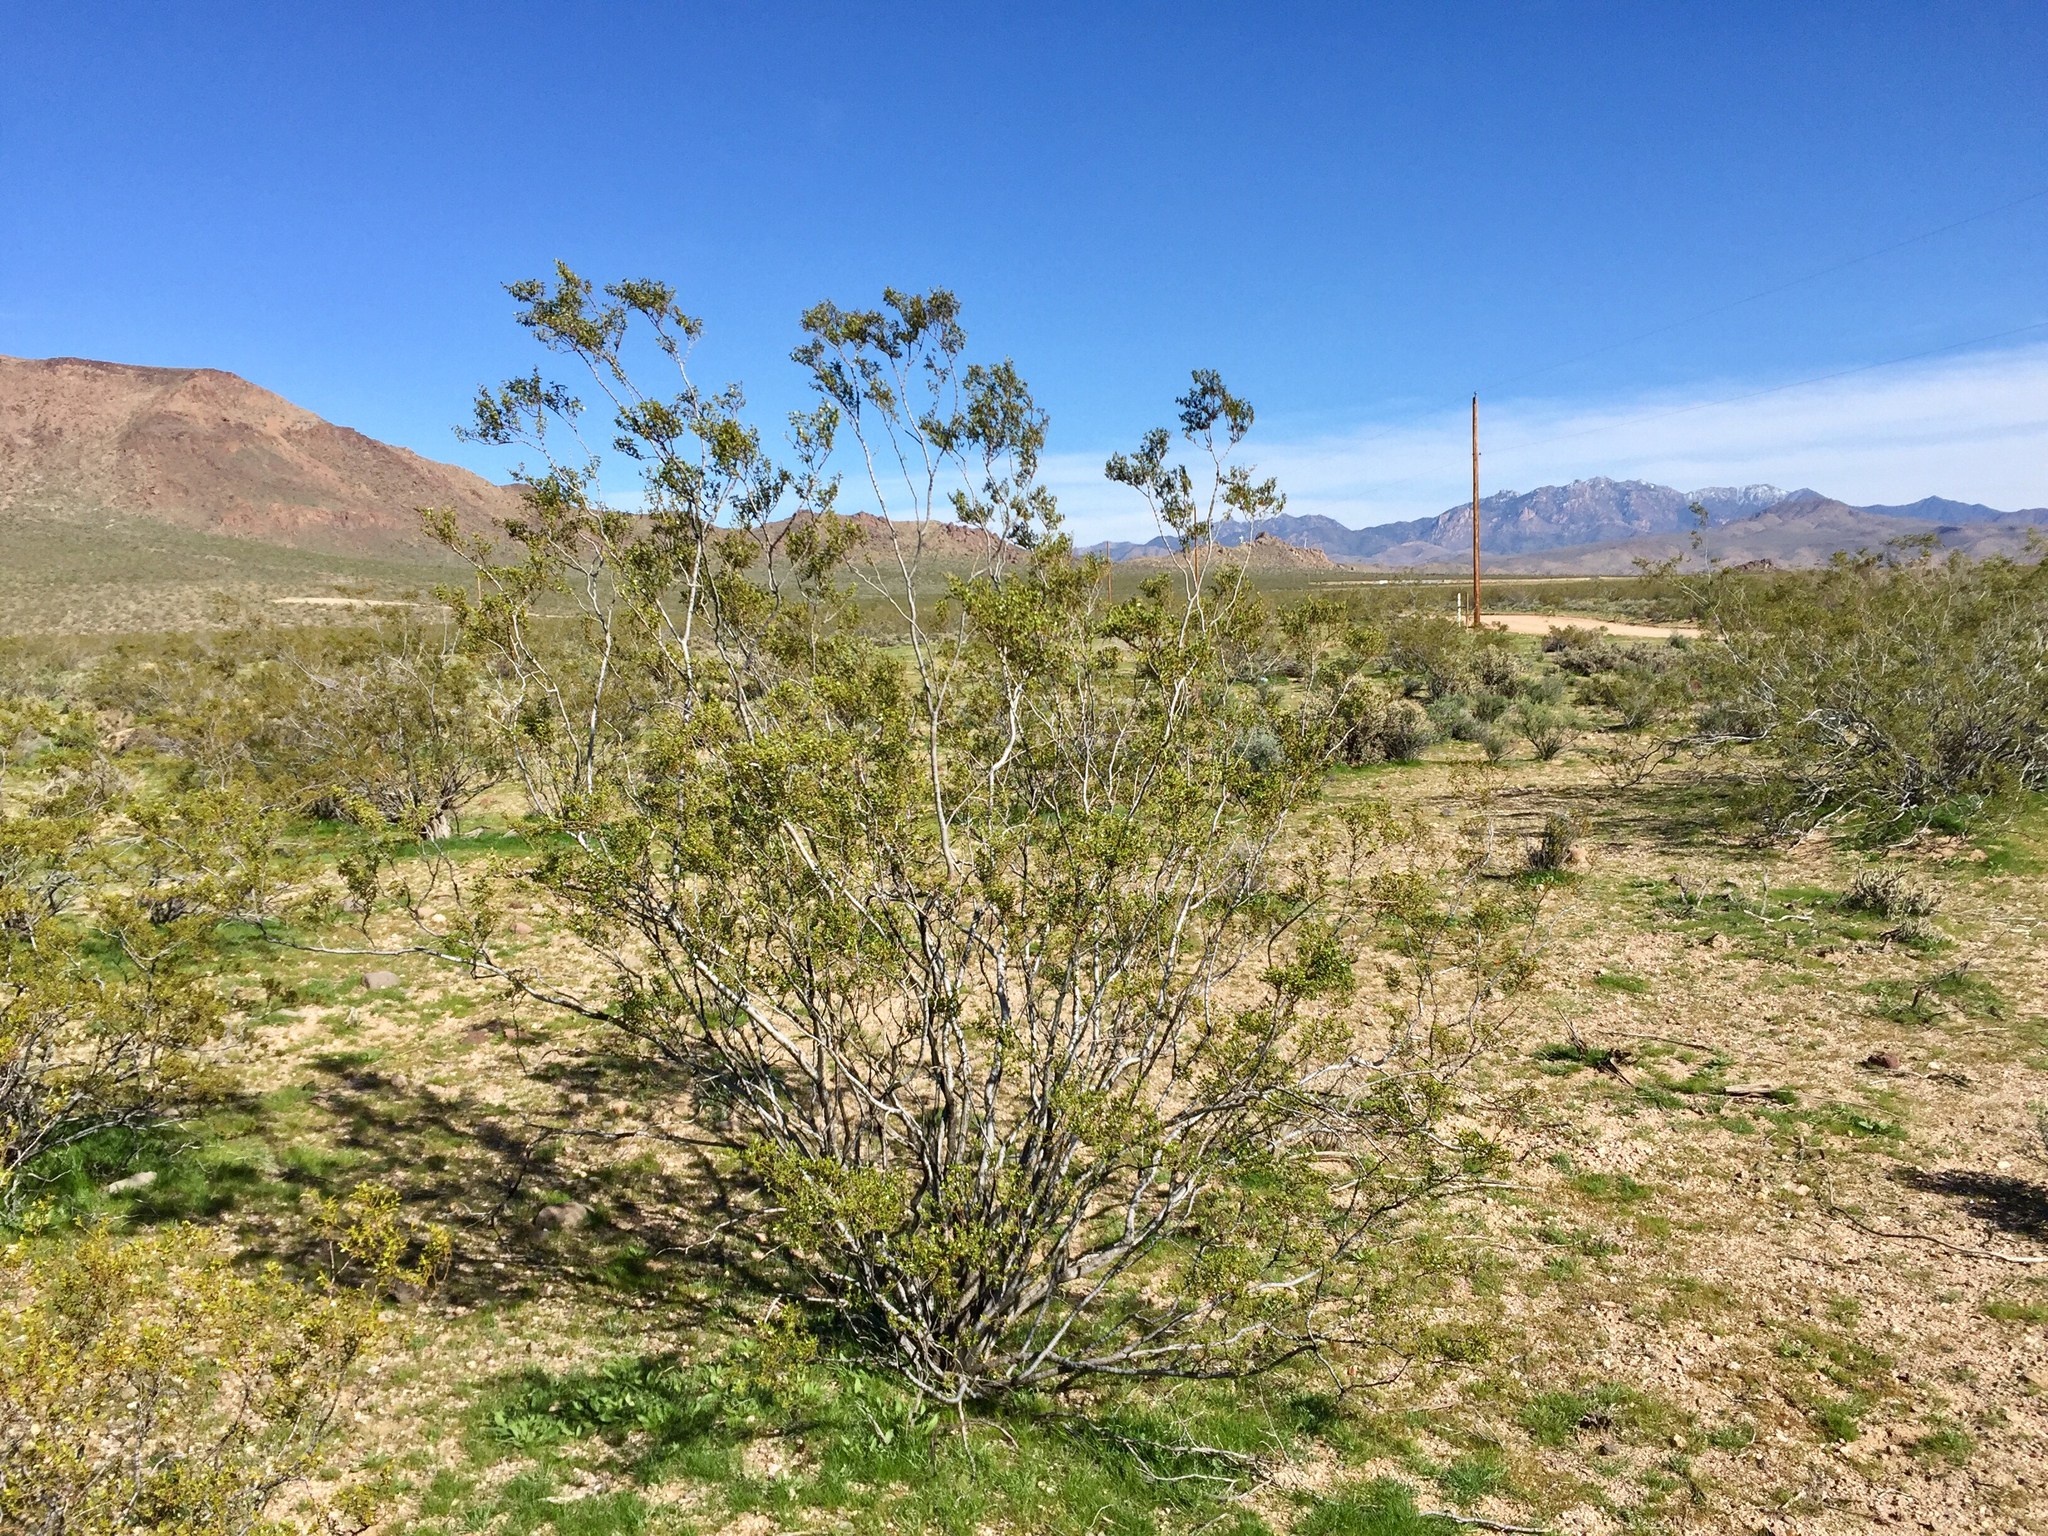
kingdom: Plantae
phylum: Tracheophyta
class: Magnoliopsida
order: Zygophyllales
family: Zygophyllaceae
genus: Larrea
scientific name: Larrea tridentata
